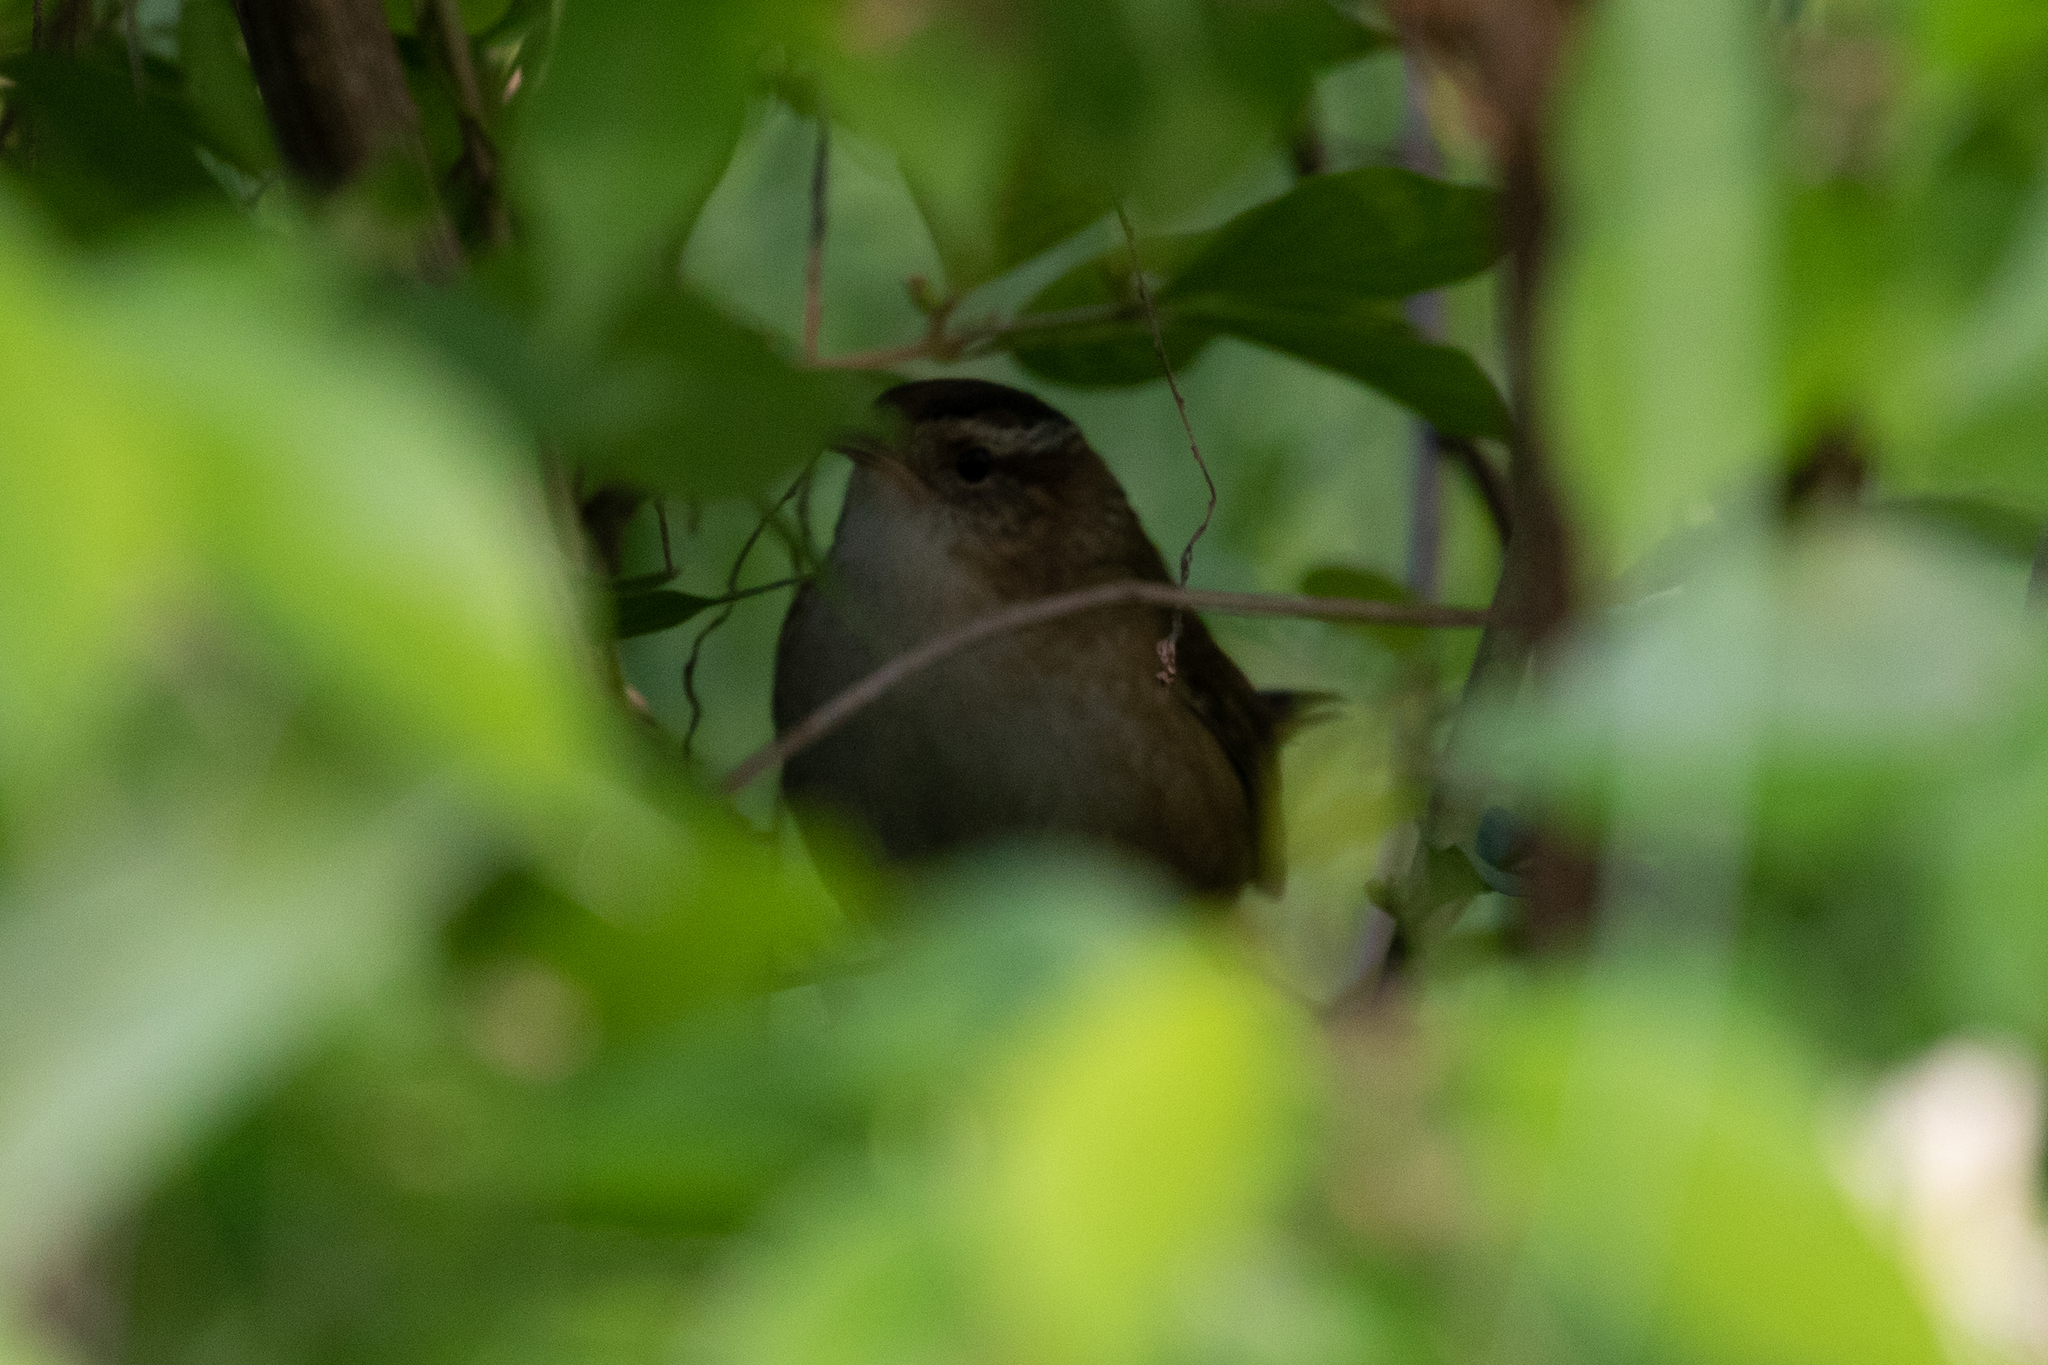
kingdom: Animalia
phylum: Chordata
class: Aves
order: Passeriformes
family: Troglodytidae
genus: Cistothorus
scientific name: Cistothorus palustris
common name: Marsh wren
